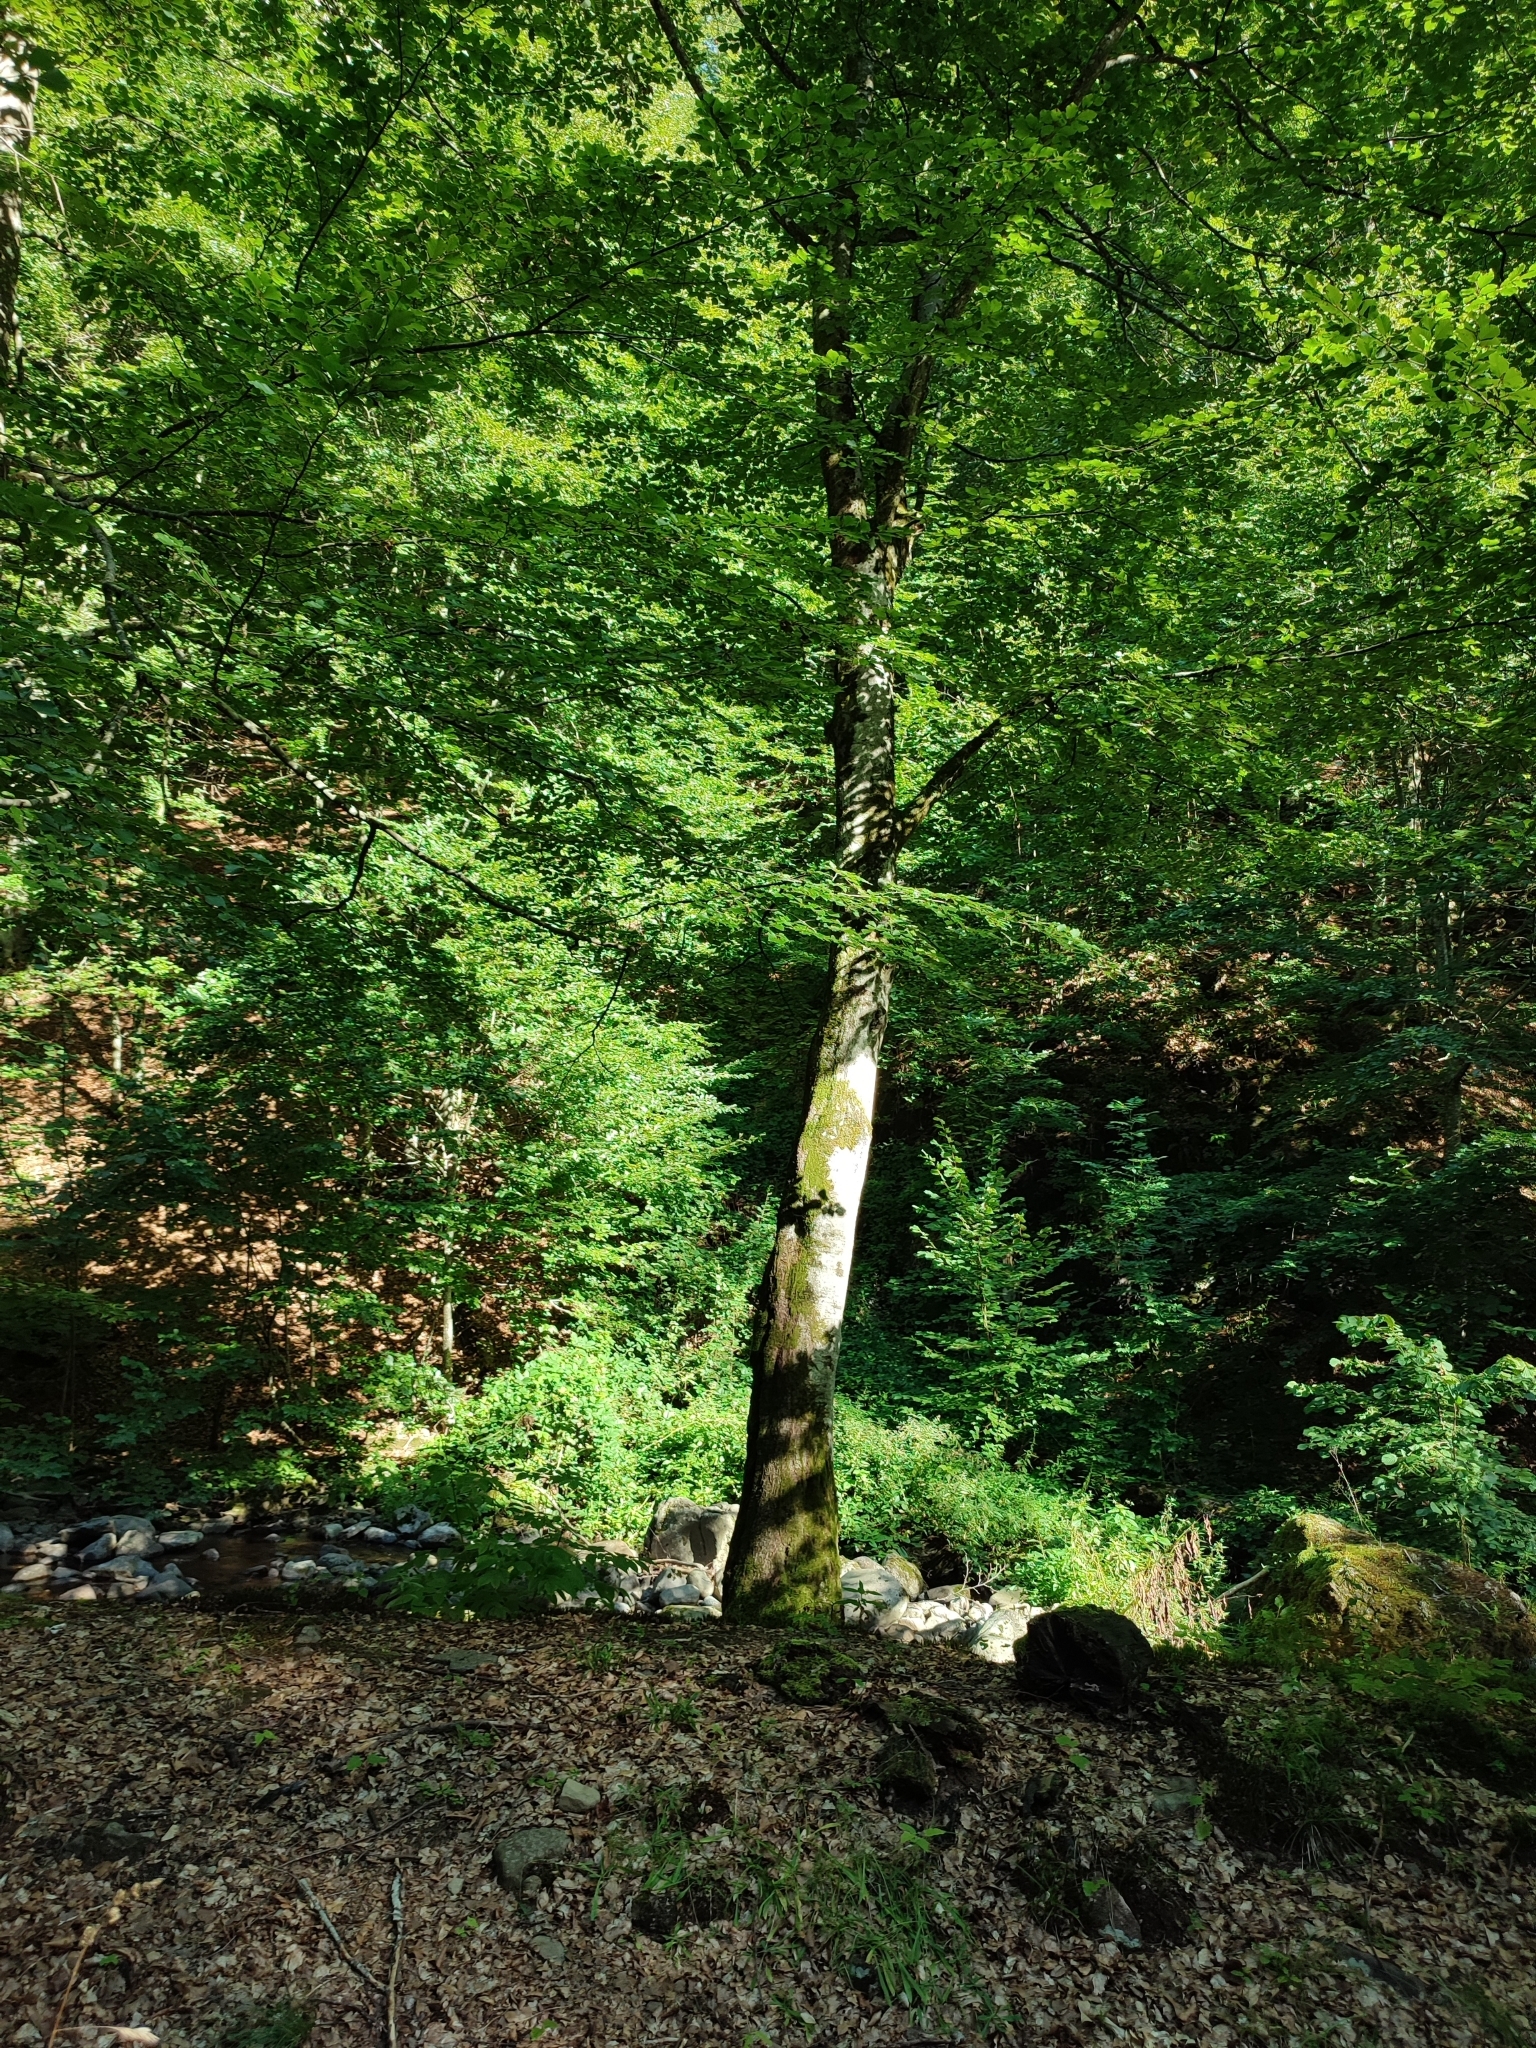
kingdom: Plantae
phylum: Tracheophyta
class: Magnoliopsida
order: Fagales
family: Fagaceae
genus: Fagus
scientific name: Fagus sylvatica
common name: Beech
